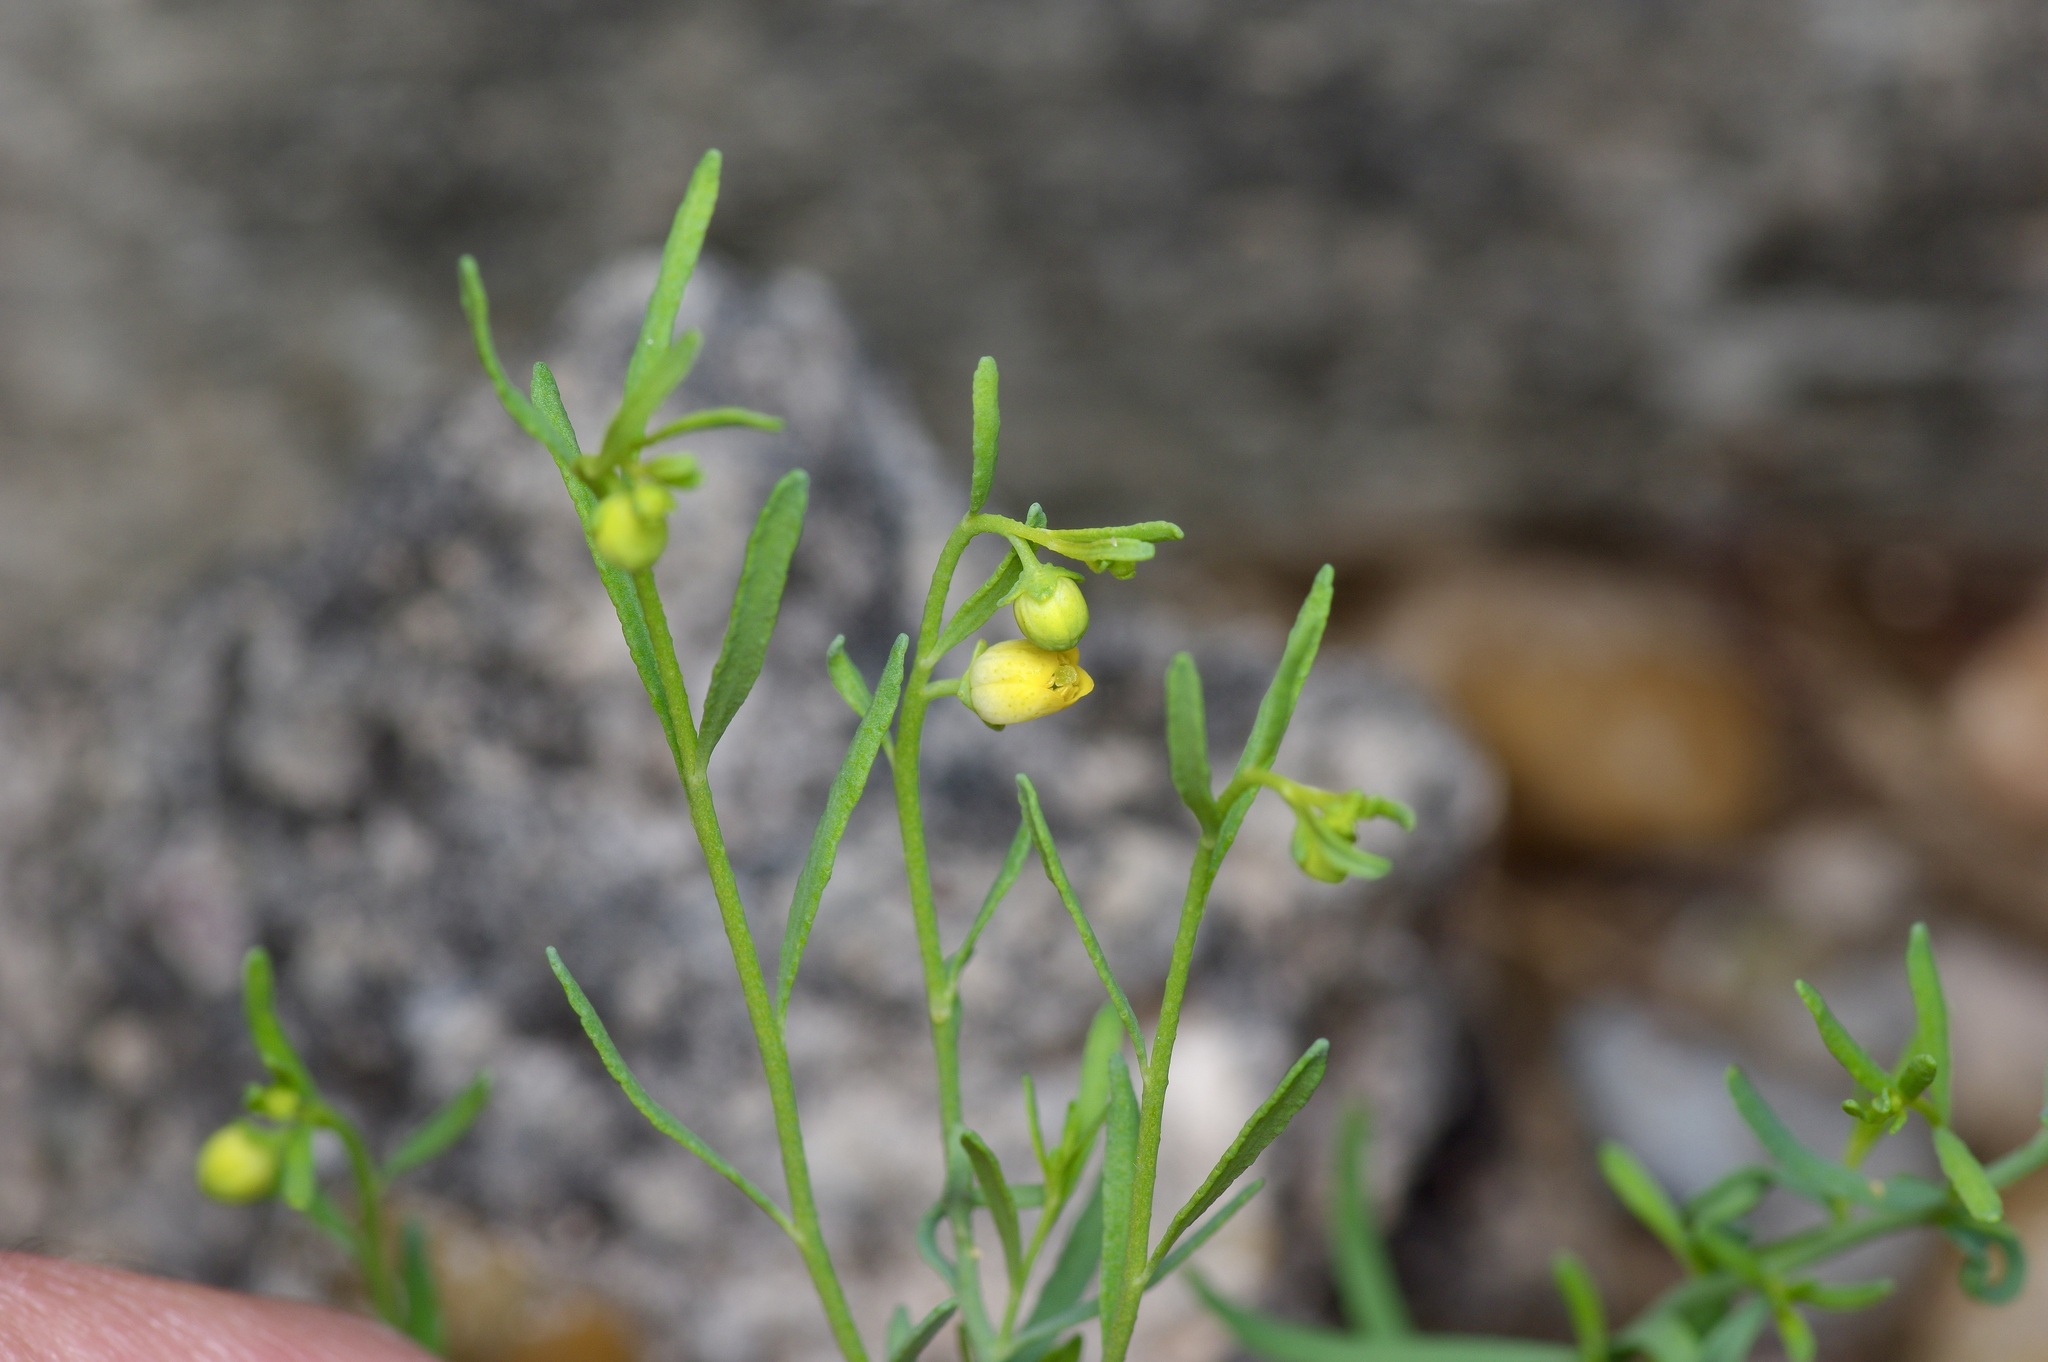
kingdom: Plantae
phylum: Tracheophyta
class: Magnoliopsida
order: Sapindales
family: Rutaceae
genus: Thamnosma
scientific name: Thamnosma texana
